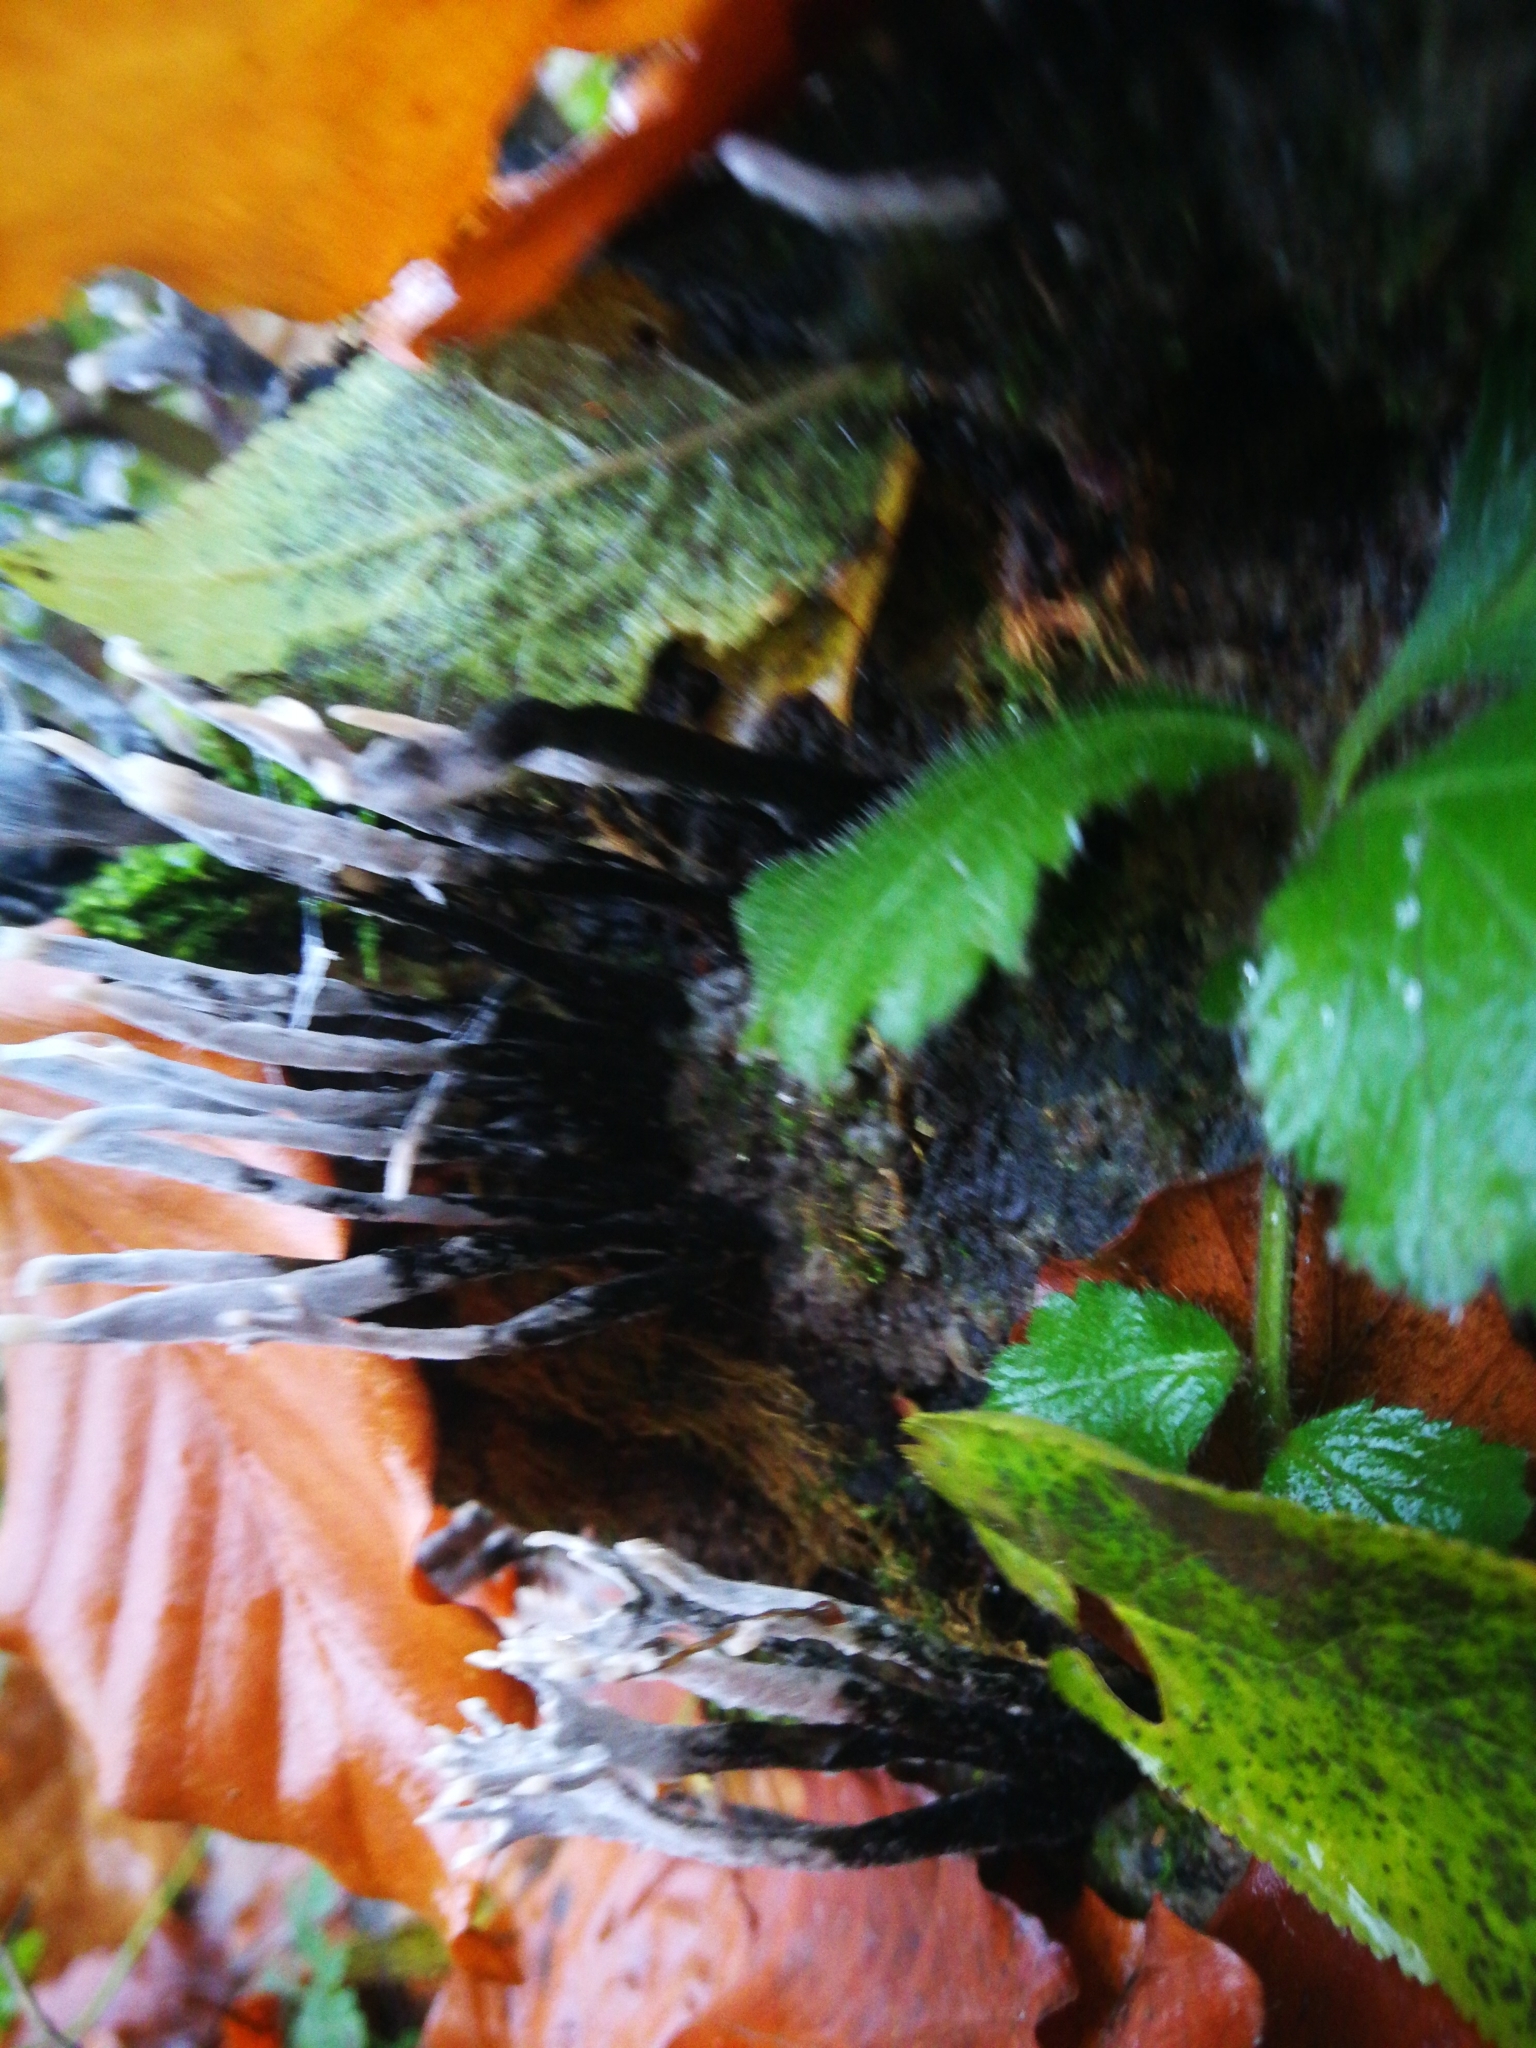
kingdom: Fungi
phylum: Ascomycota
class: Sordariomycetes
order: Xylariales
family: Xylariaceae
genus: Xylaria
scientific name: Xylaria hypoxylon
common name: Candle-snuff fungus
